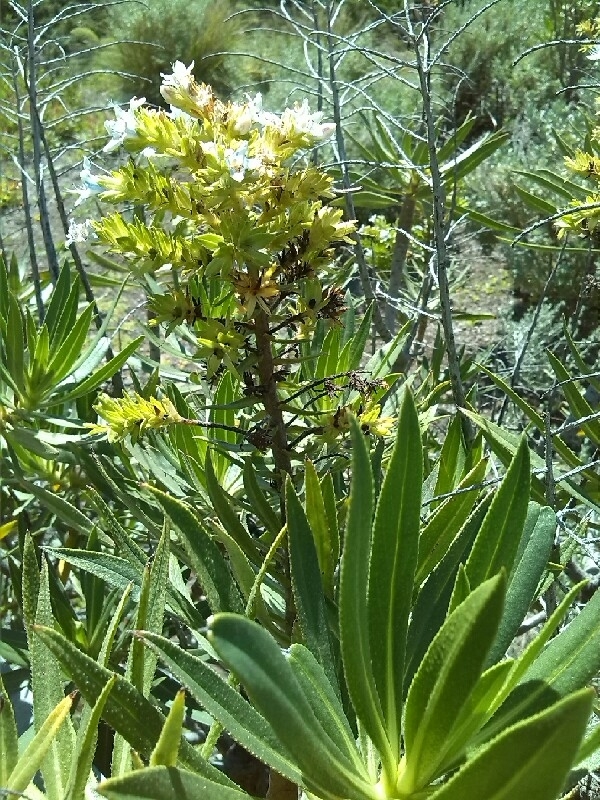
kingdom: Plantae
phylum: Tracheophyta
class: Magnoliopsida
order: Boraginales
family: Boraginaceae
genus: Echium
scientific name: Echium decaisnei
